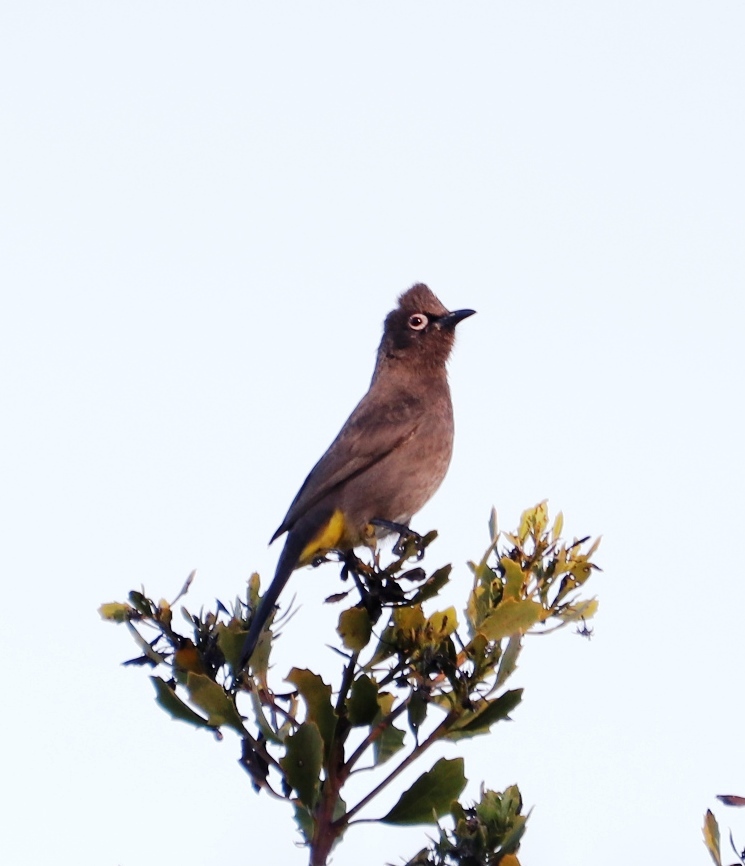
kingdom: Animalia
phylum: Chordata
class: Aves
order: Passeriformes
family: Pycnonotidae
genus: Pycnonotus
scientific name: Pycnonotus capensis
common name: Cape bulbul
